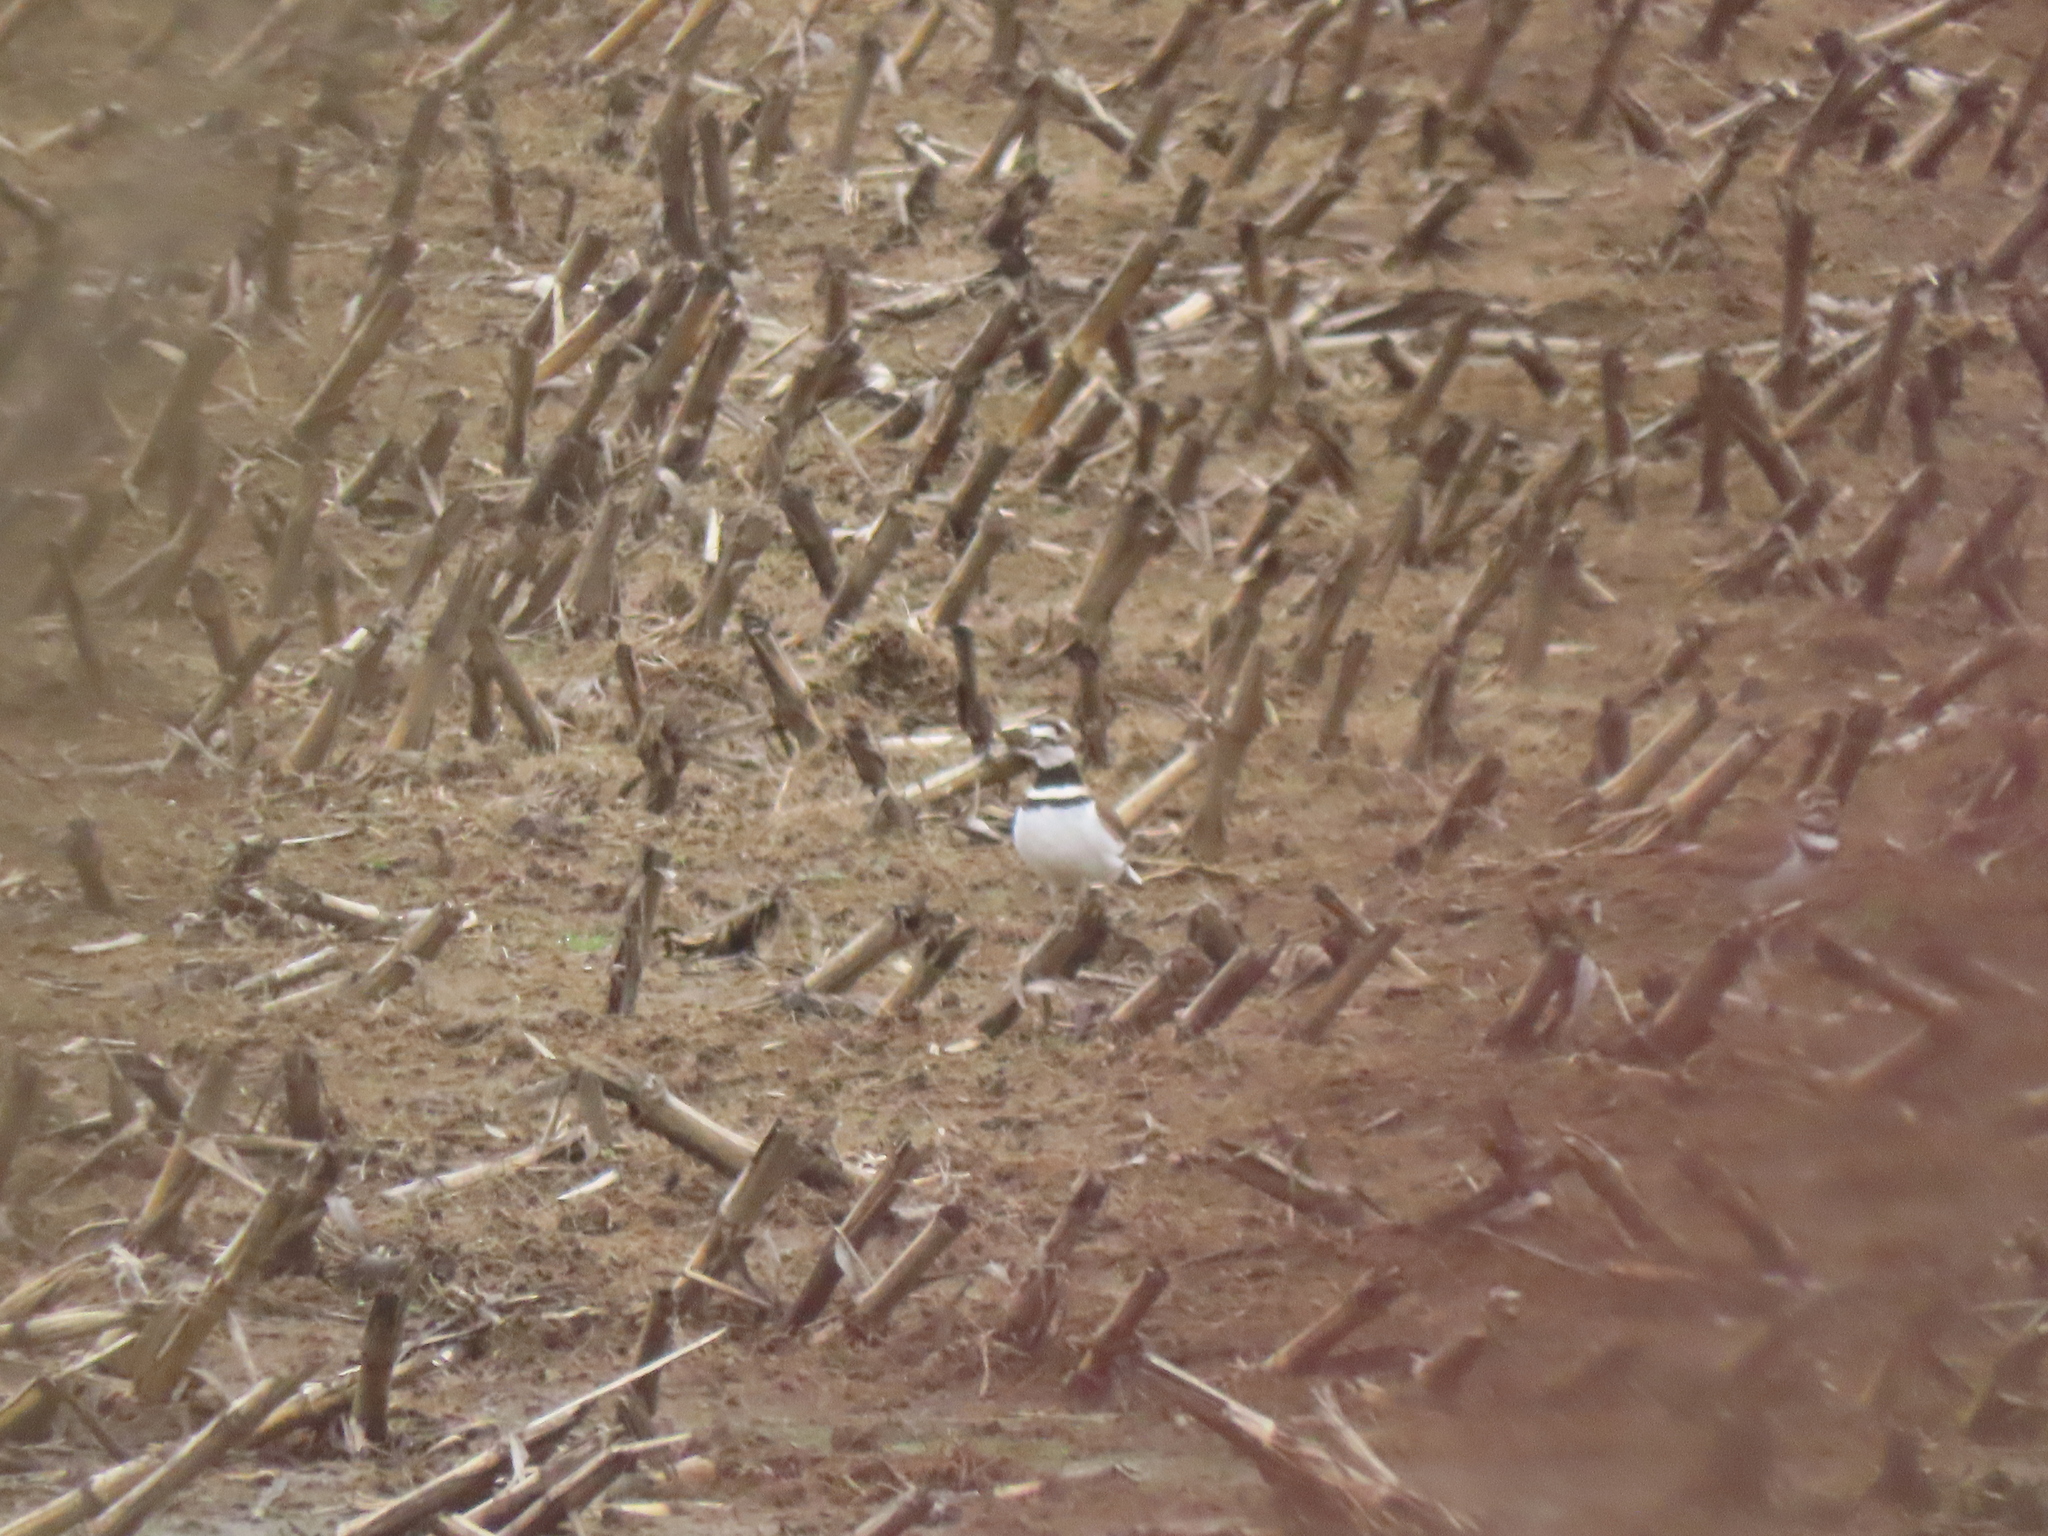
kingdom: Animalia
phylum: Chordata
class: Aves
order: Charadriiformes
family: Charadriidae
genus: Charadrius
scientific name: Charadrius vociferus
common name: Killdeer
